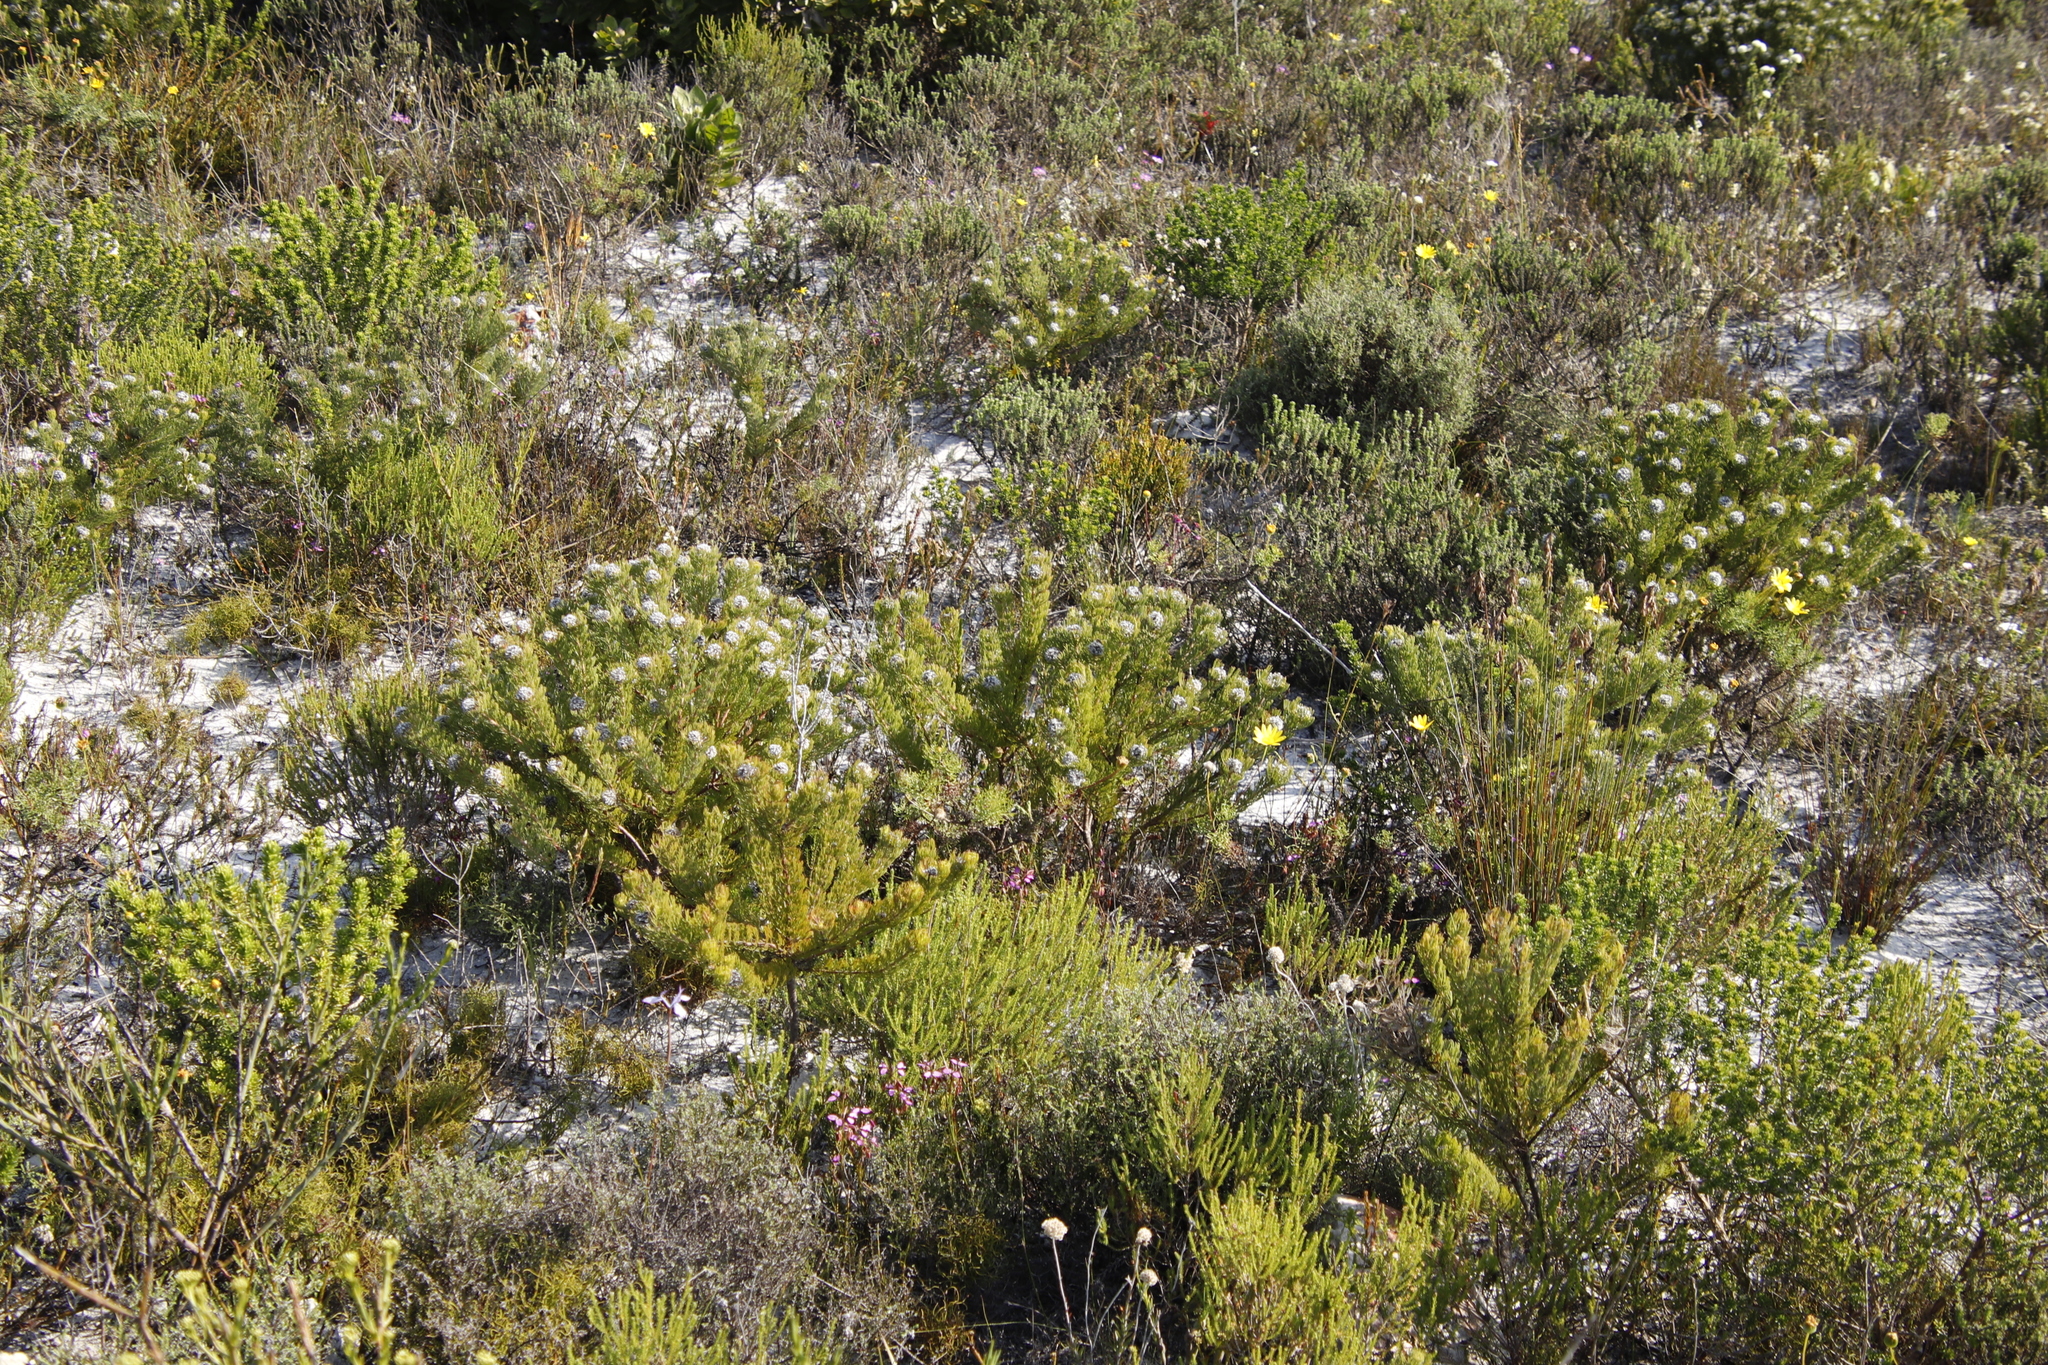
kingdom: Plantae
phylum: Tracheophyta
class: Magnoliopsida
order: Proteales
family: Proteaceae
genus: Serruria
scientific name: Serruria villosa
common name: Golden spiderhead
